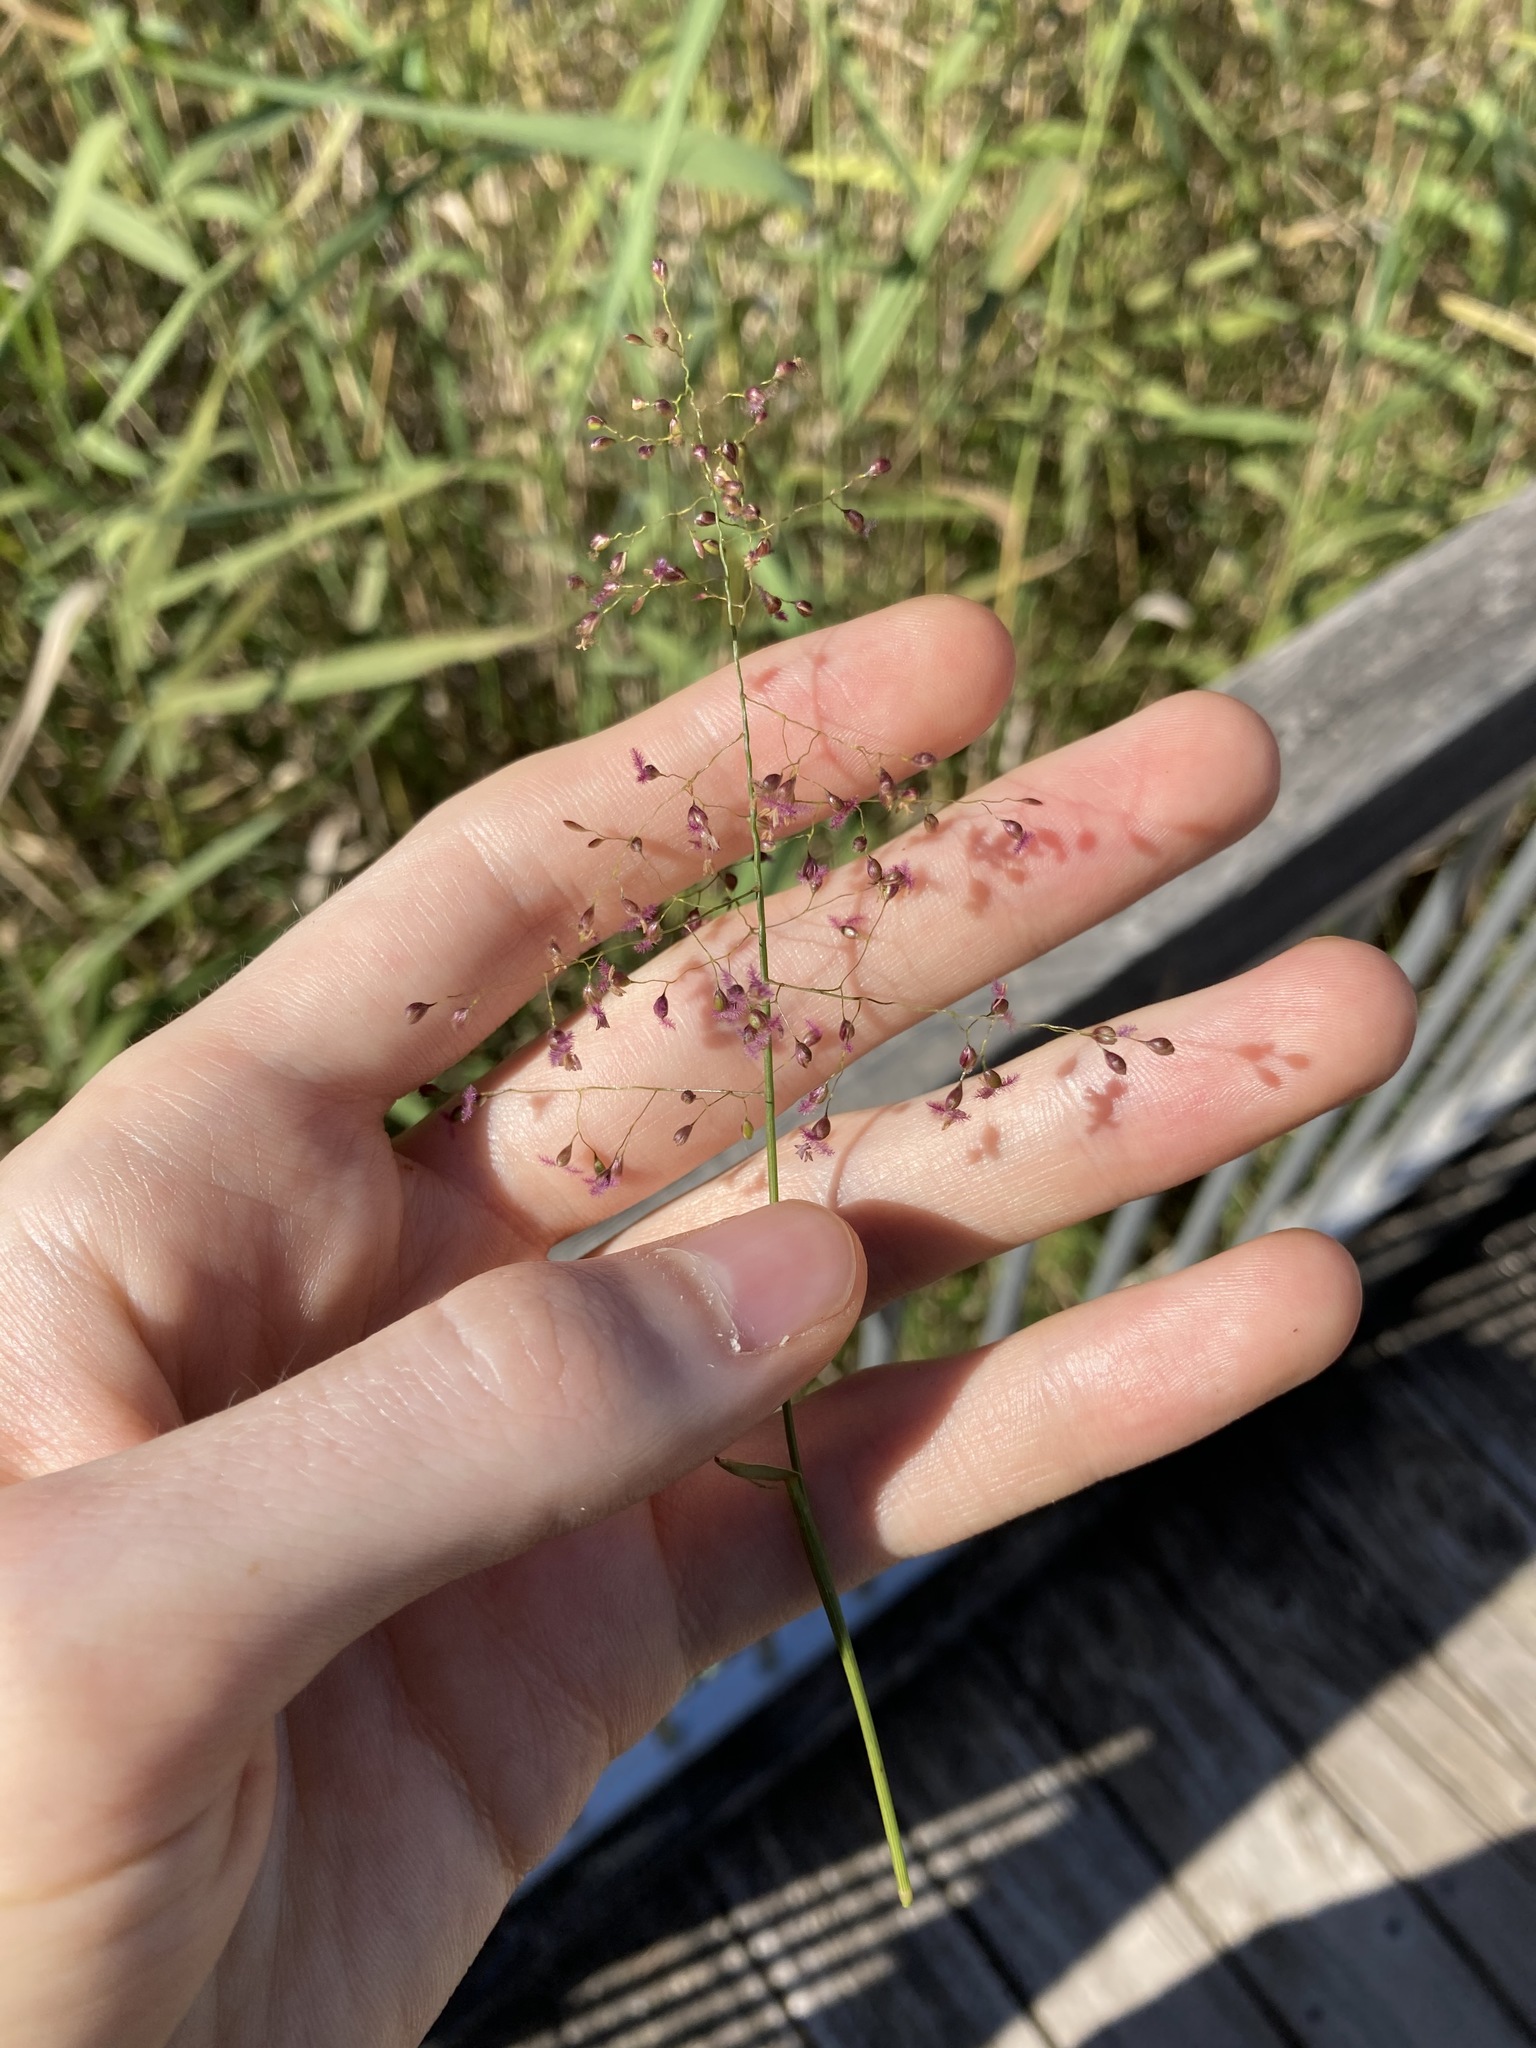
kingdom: Plantae
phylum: Tracheophyta
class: Liliopsida
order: Poales
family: Poaceae
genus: Isachne
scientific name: Isachne globosa
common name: Swamp millet
